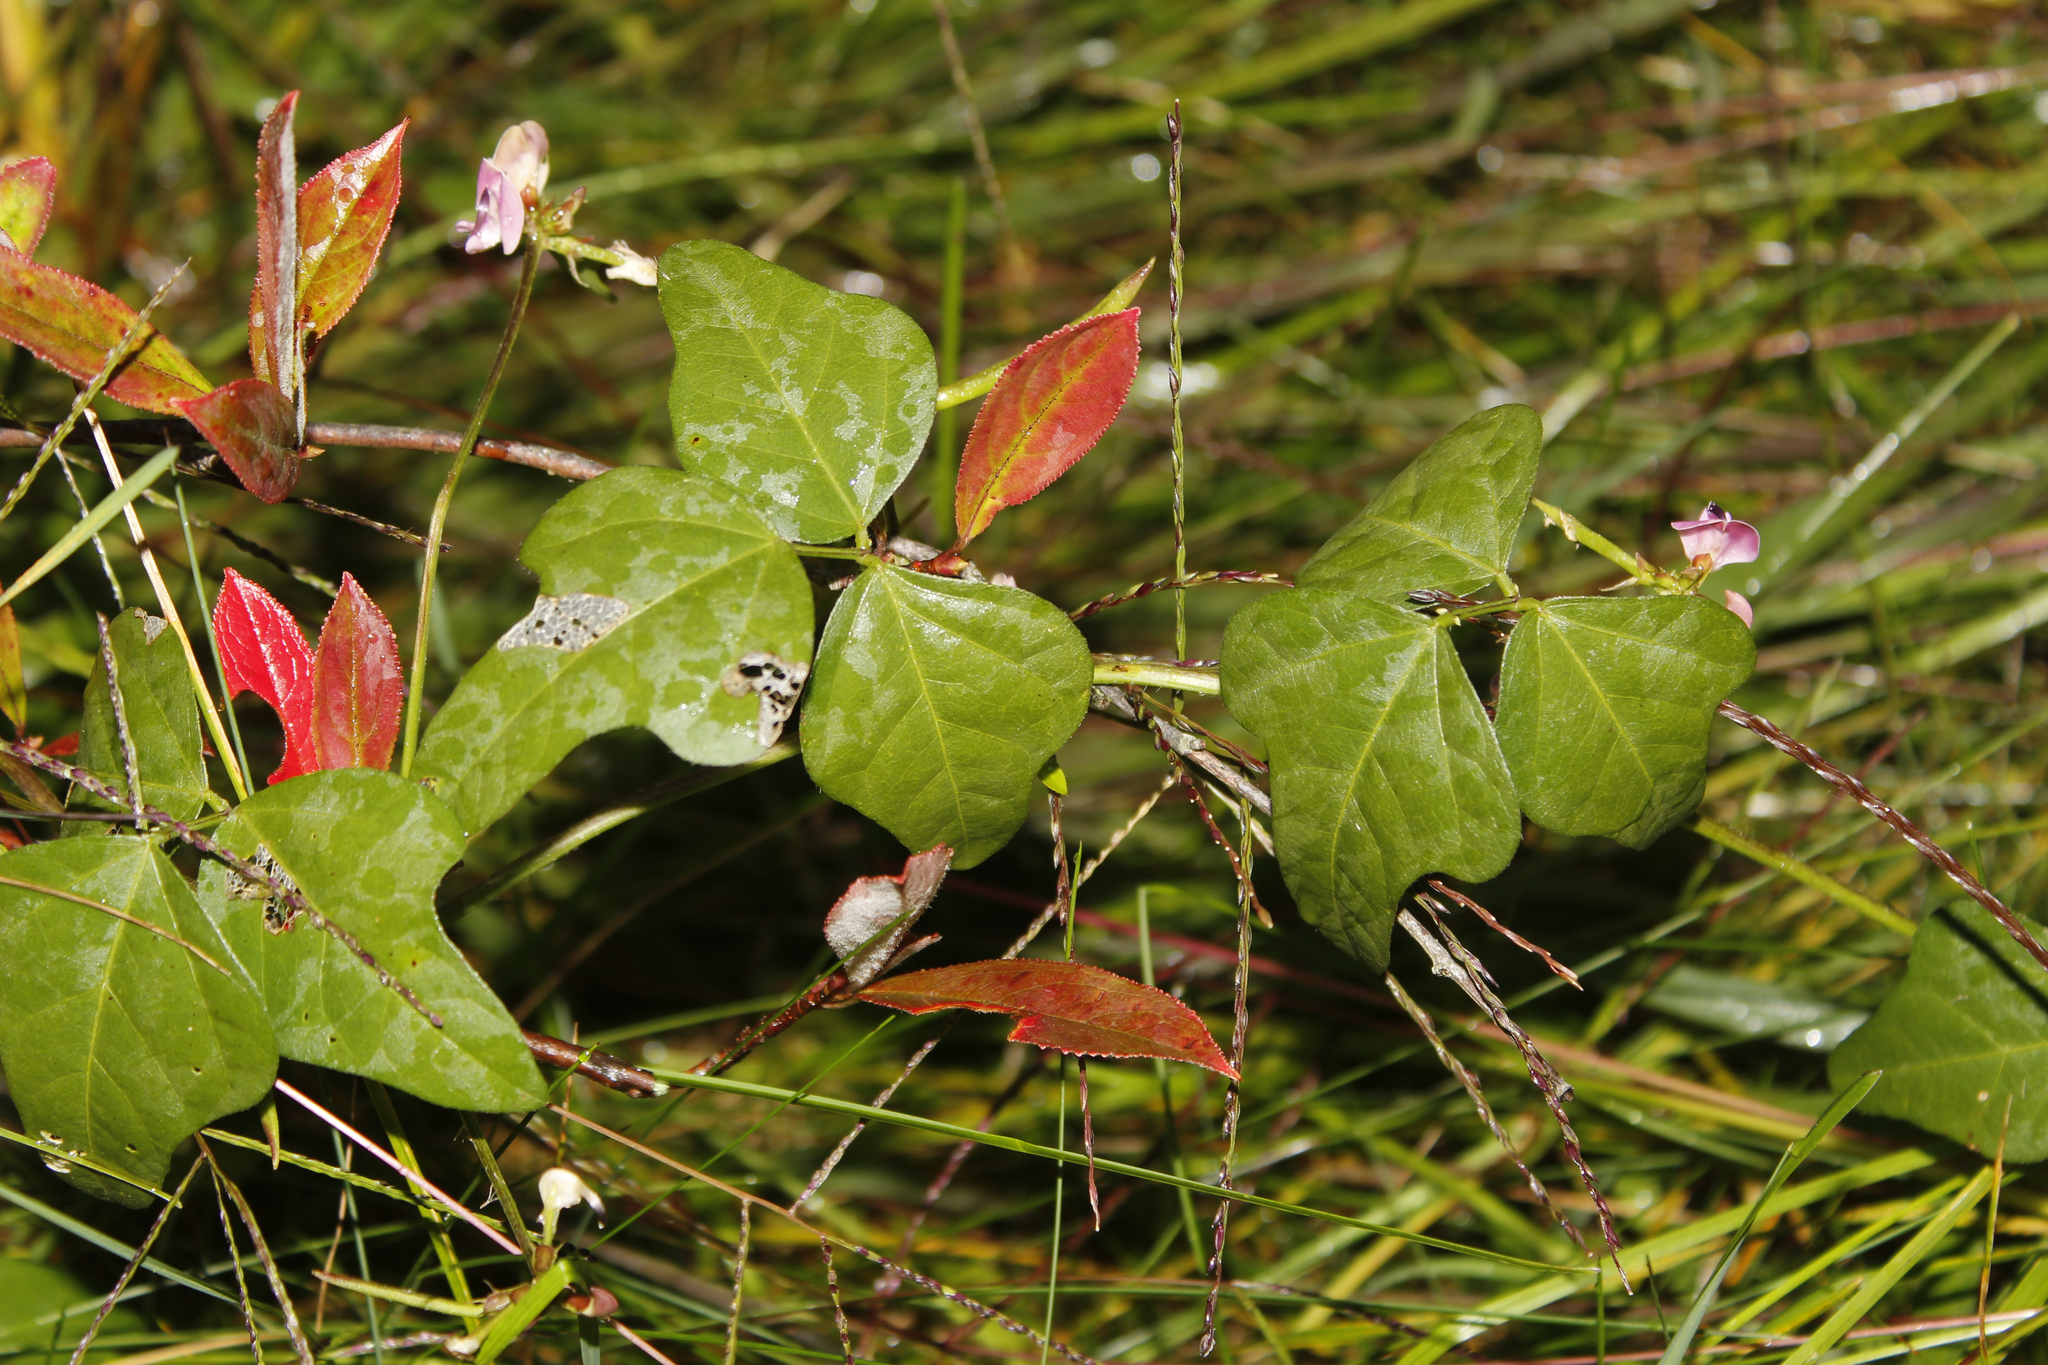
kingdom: Plantae
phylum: Tracheophyta
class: Magnoliopsida
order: Fabales
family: Fabaceae
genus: Strophostyles
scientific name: Strophostyles helvola
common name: Trailing wild bean
